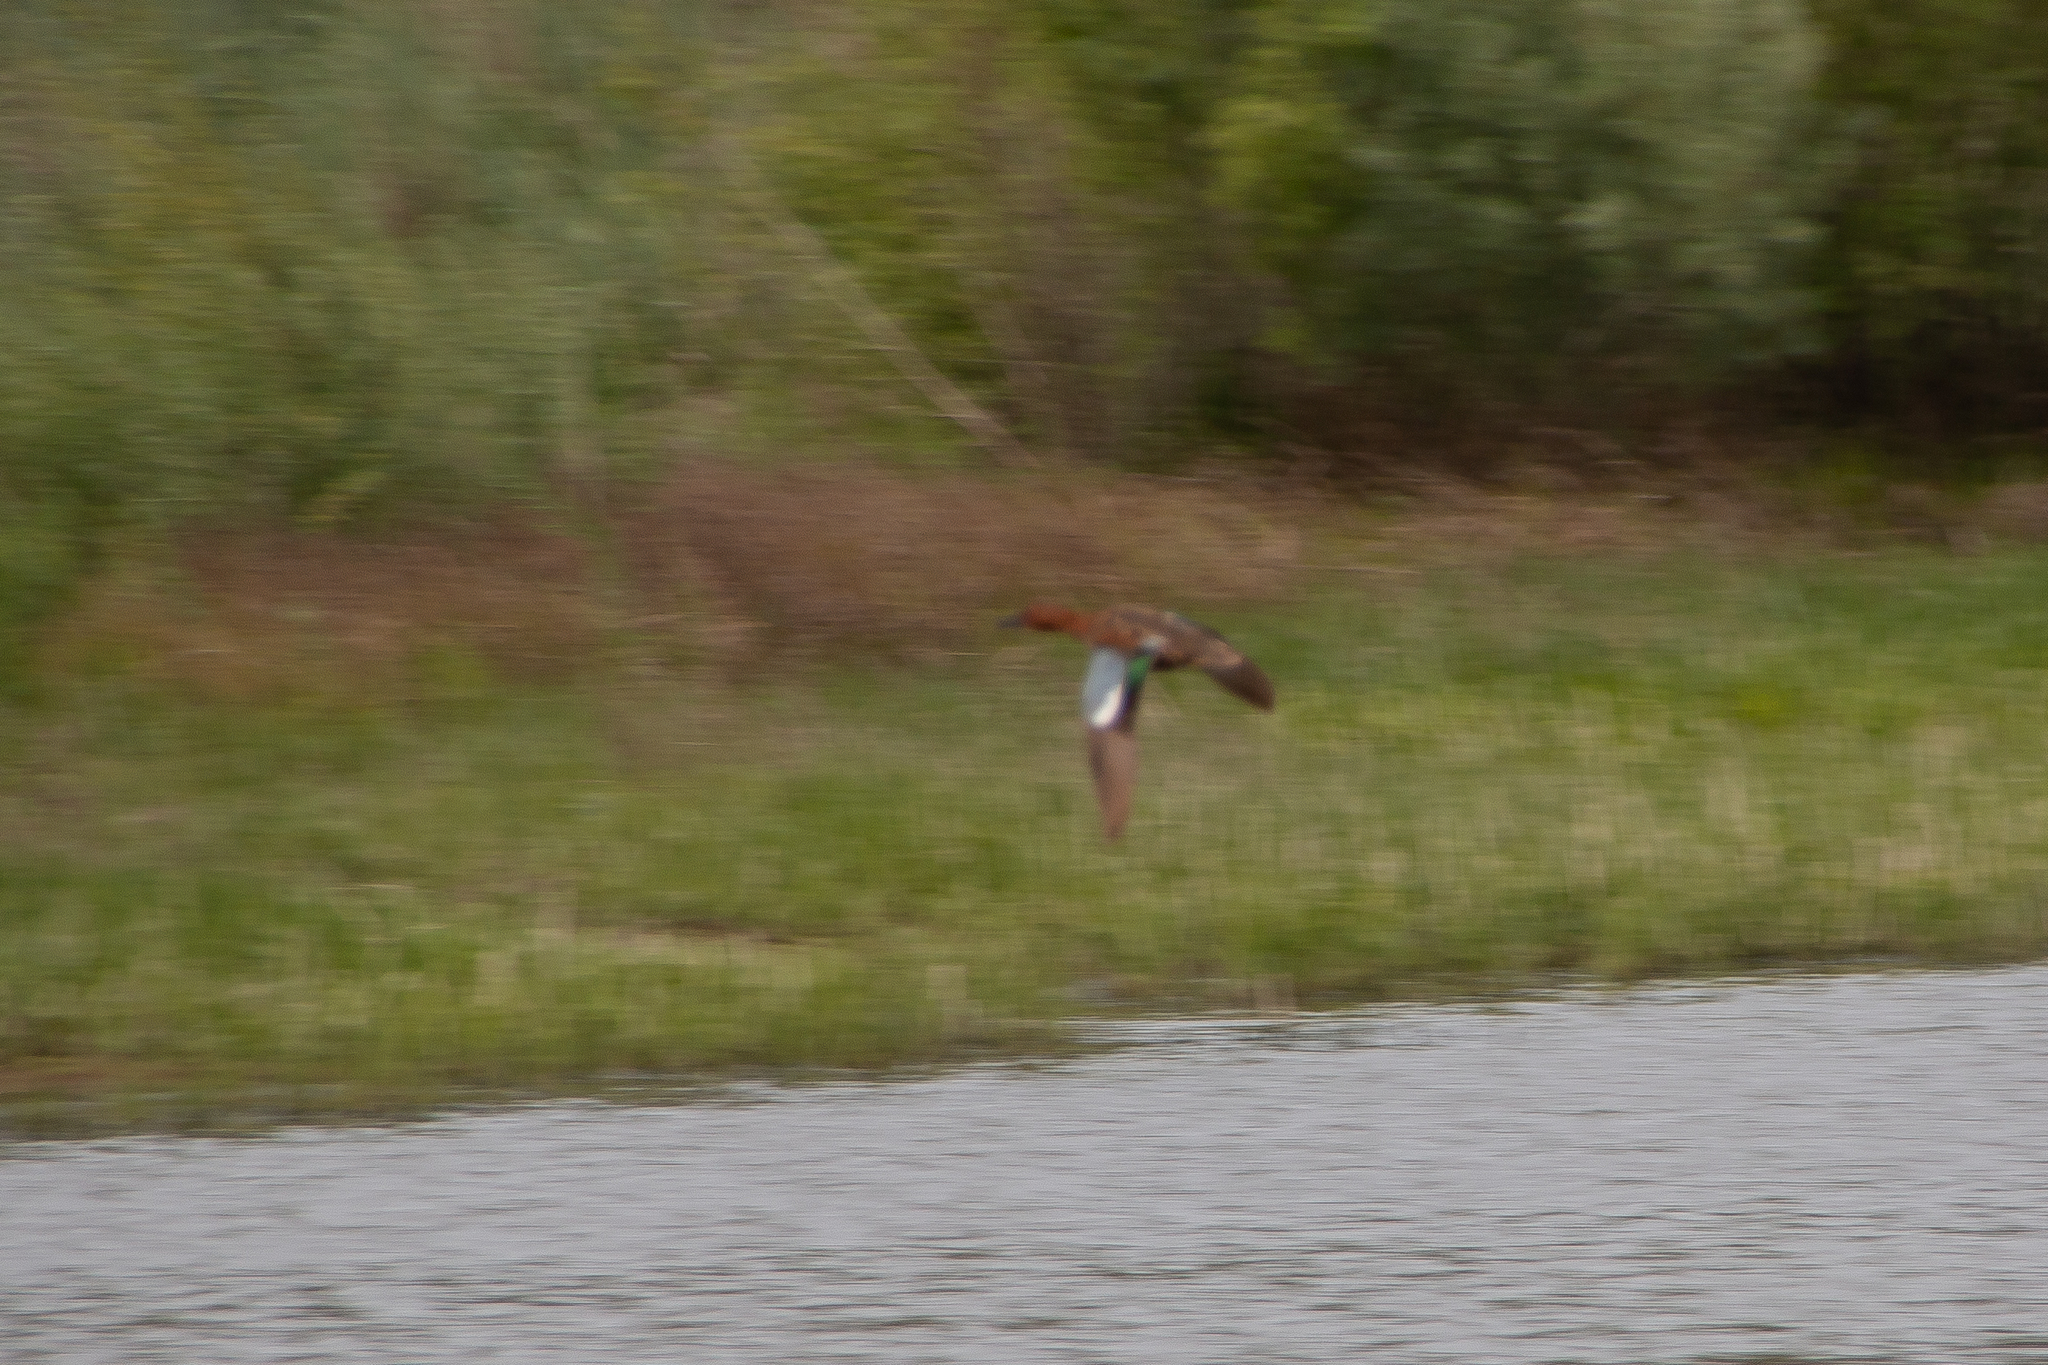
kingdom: Animalia
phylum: Chordata
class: Aves
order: Anseriformes
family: Anatidae
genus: Spatula
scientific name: Spatula cyanoptera
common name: Cinnamon teal
